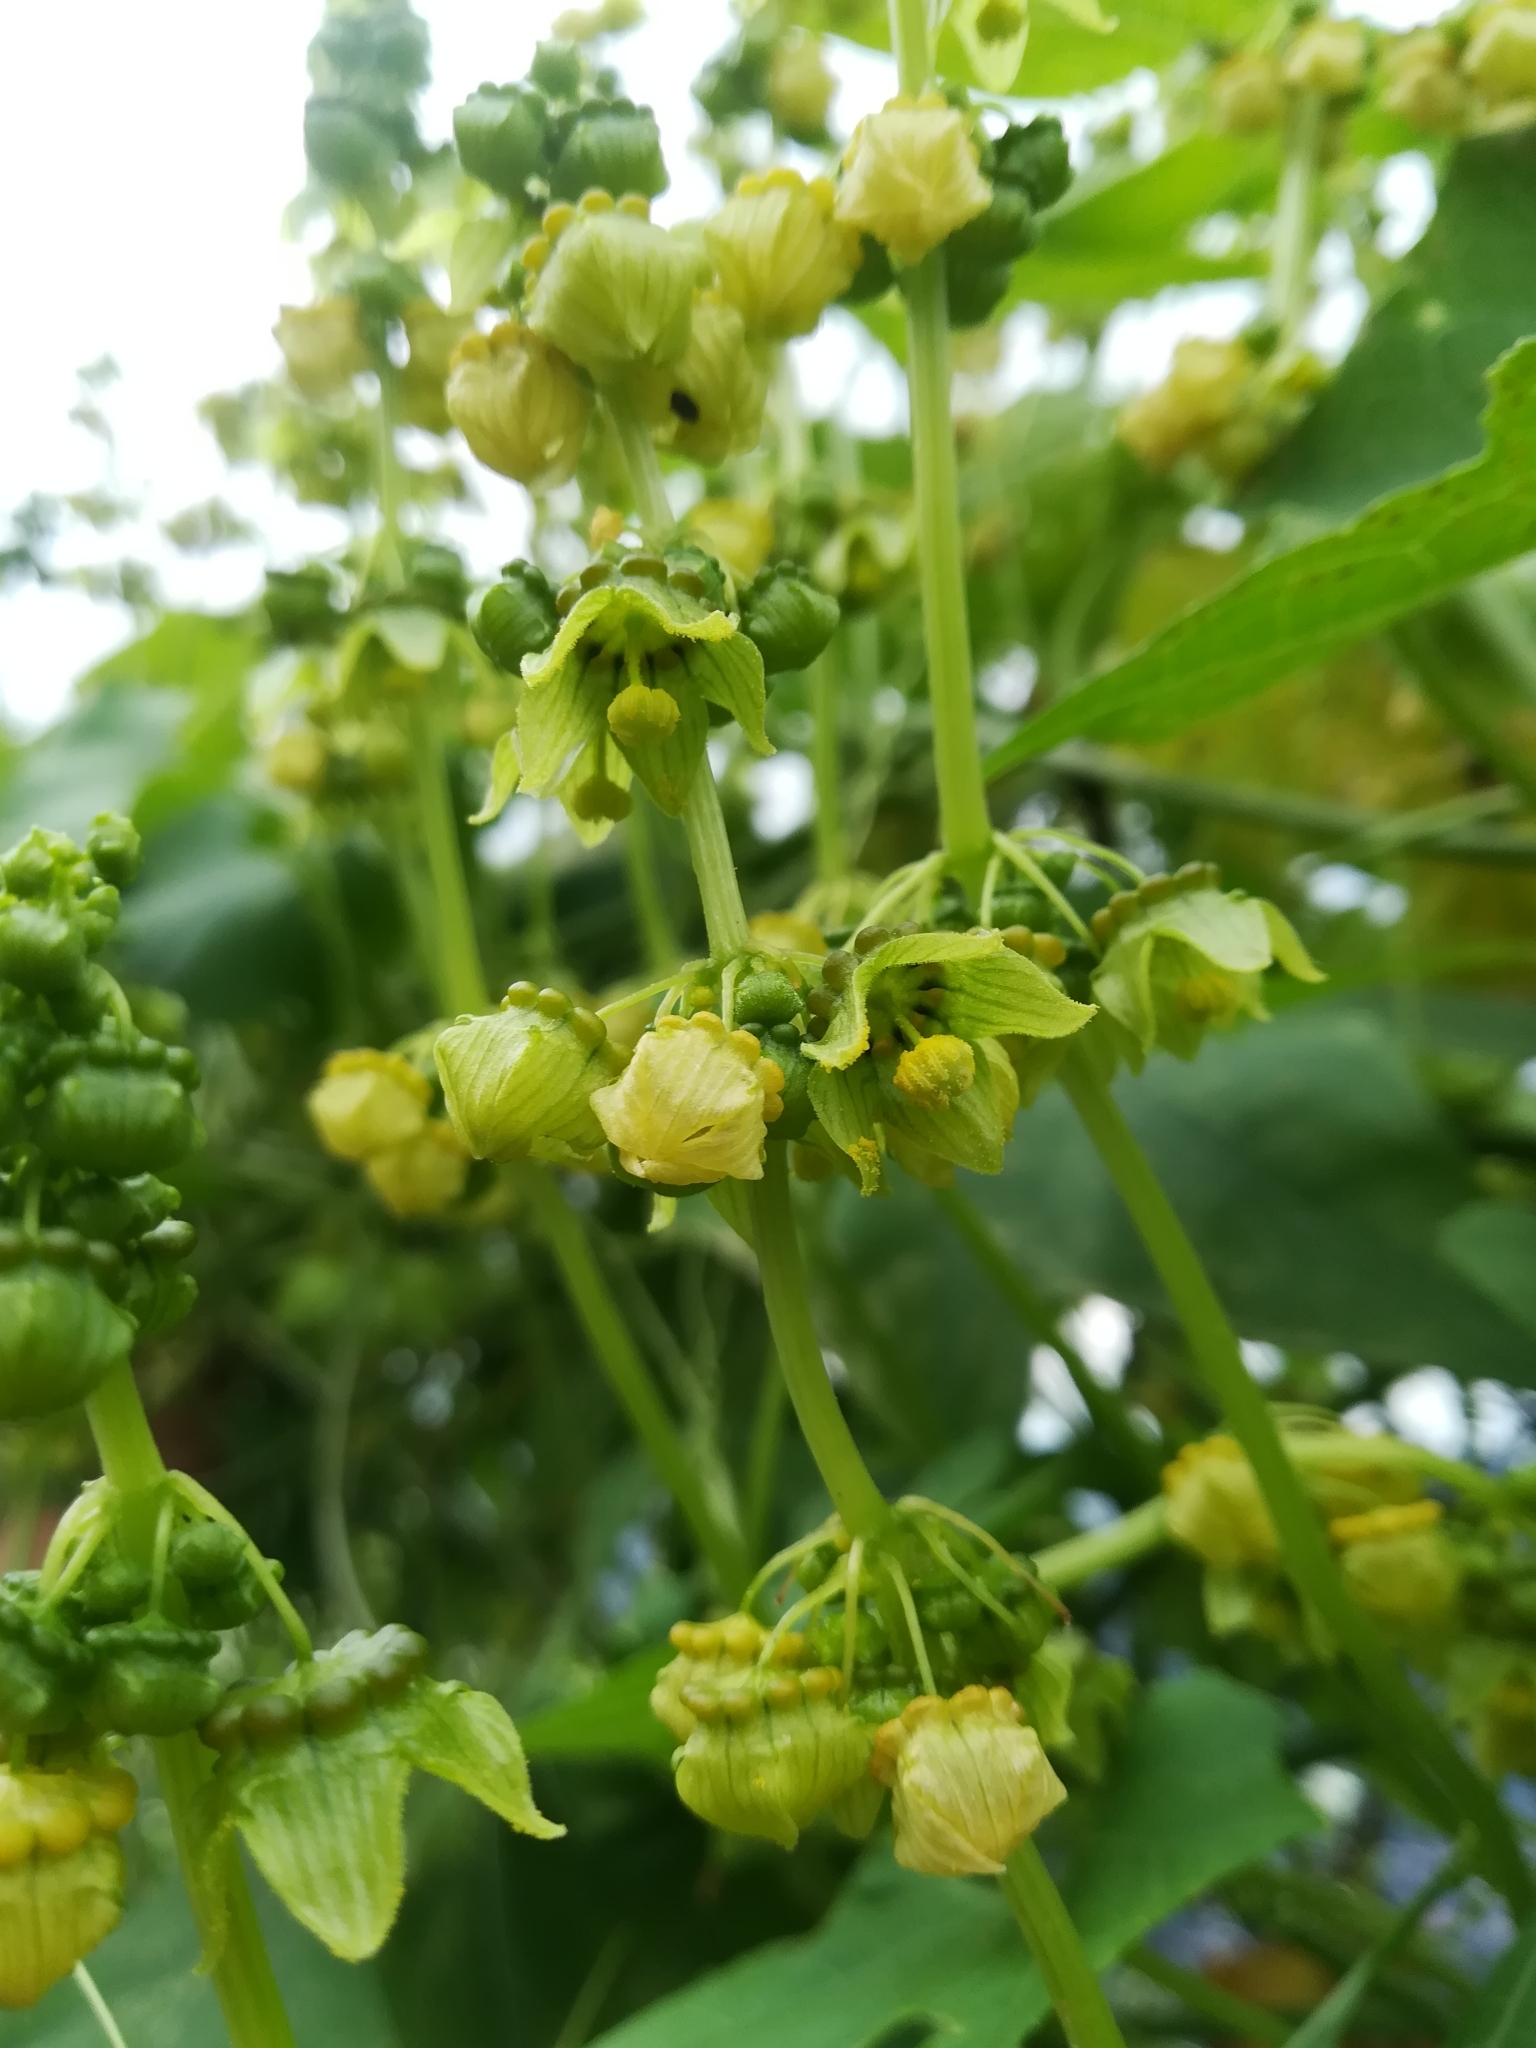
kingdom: Plantae
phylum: Tracheophyta
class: Magnoliopsida
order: Cucurbitales
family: Cucurbitaceae
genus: Sechiopsis
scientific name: Sechiopsis triquetra
